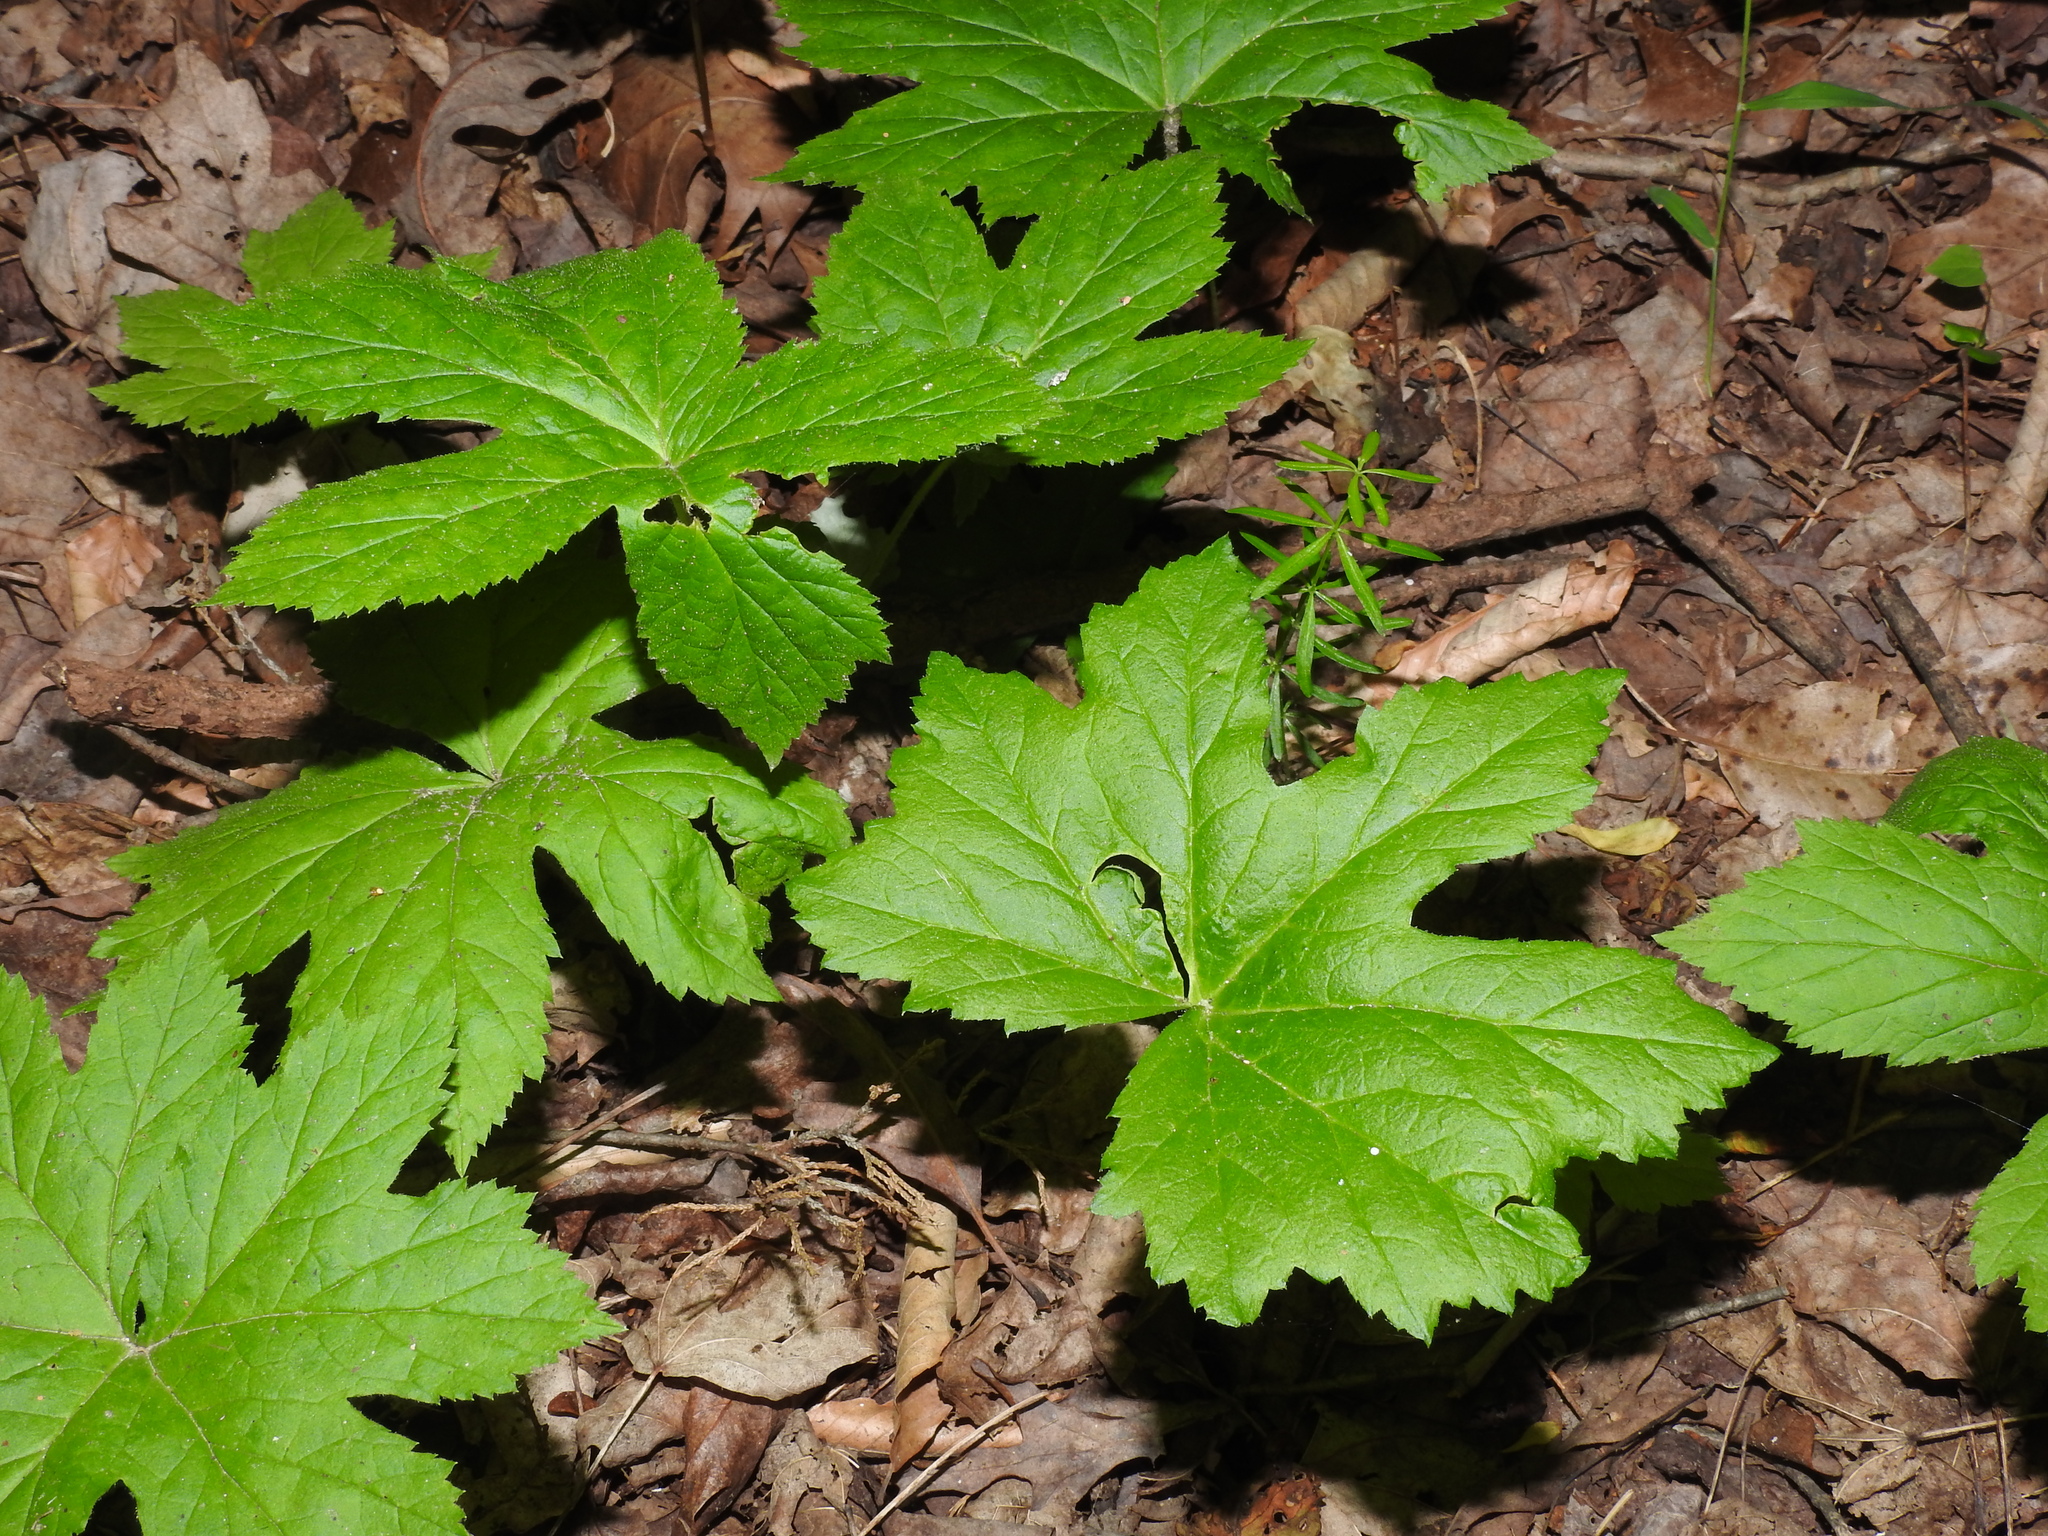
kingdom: Plantae
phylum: Tracheophyta
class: Magnoliopsida
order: Ranunculales
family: Ranunculaceae
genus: Hydrastis
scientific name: Hydrastis canadensis
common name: Goldenseal
